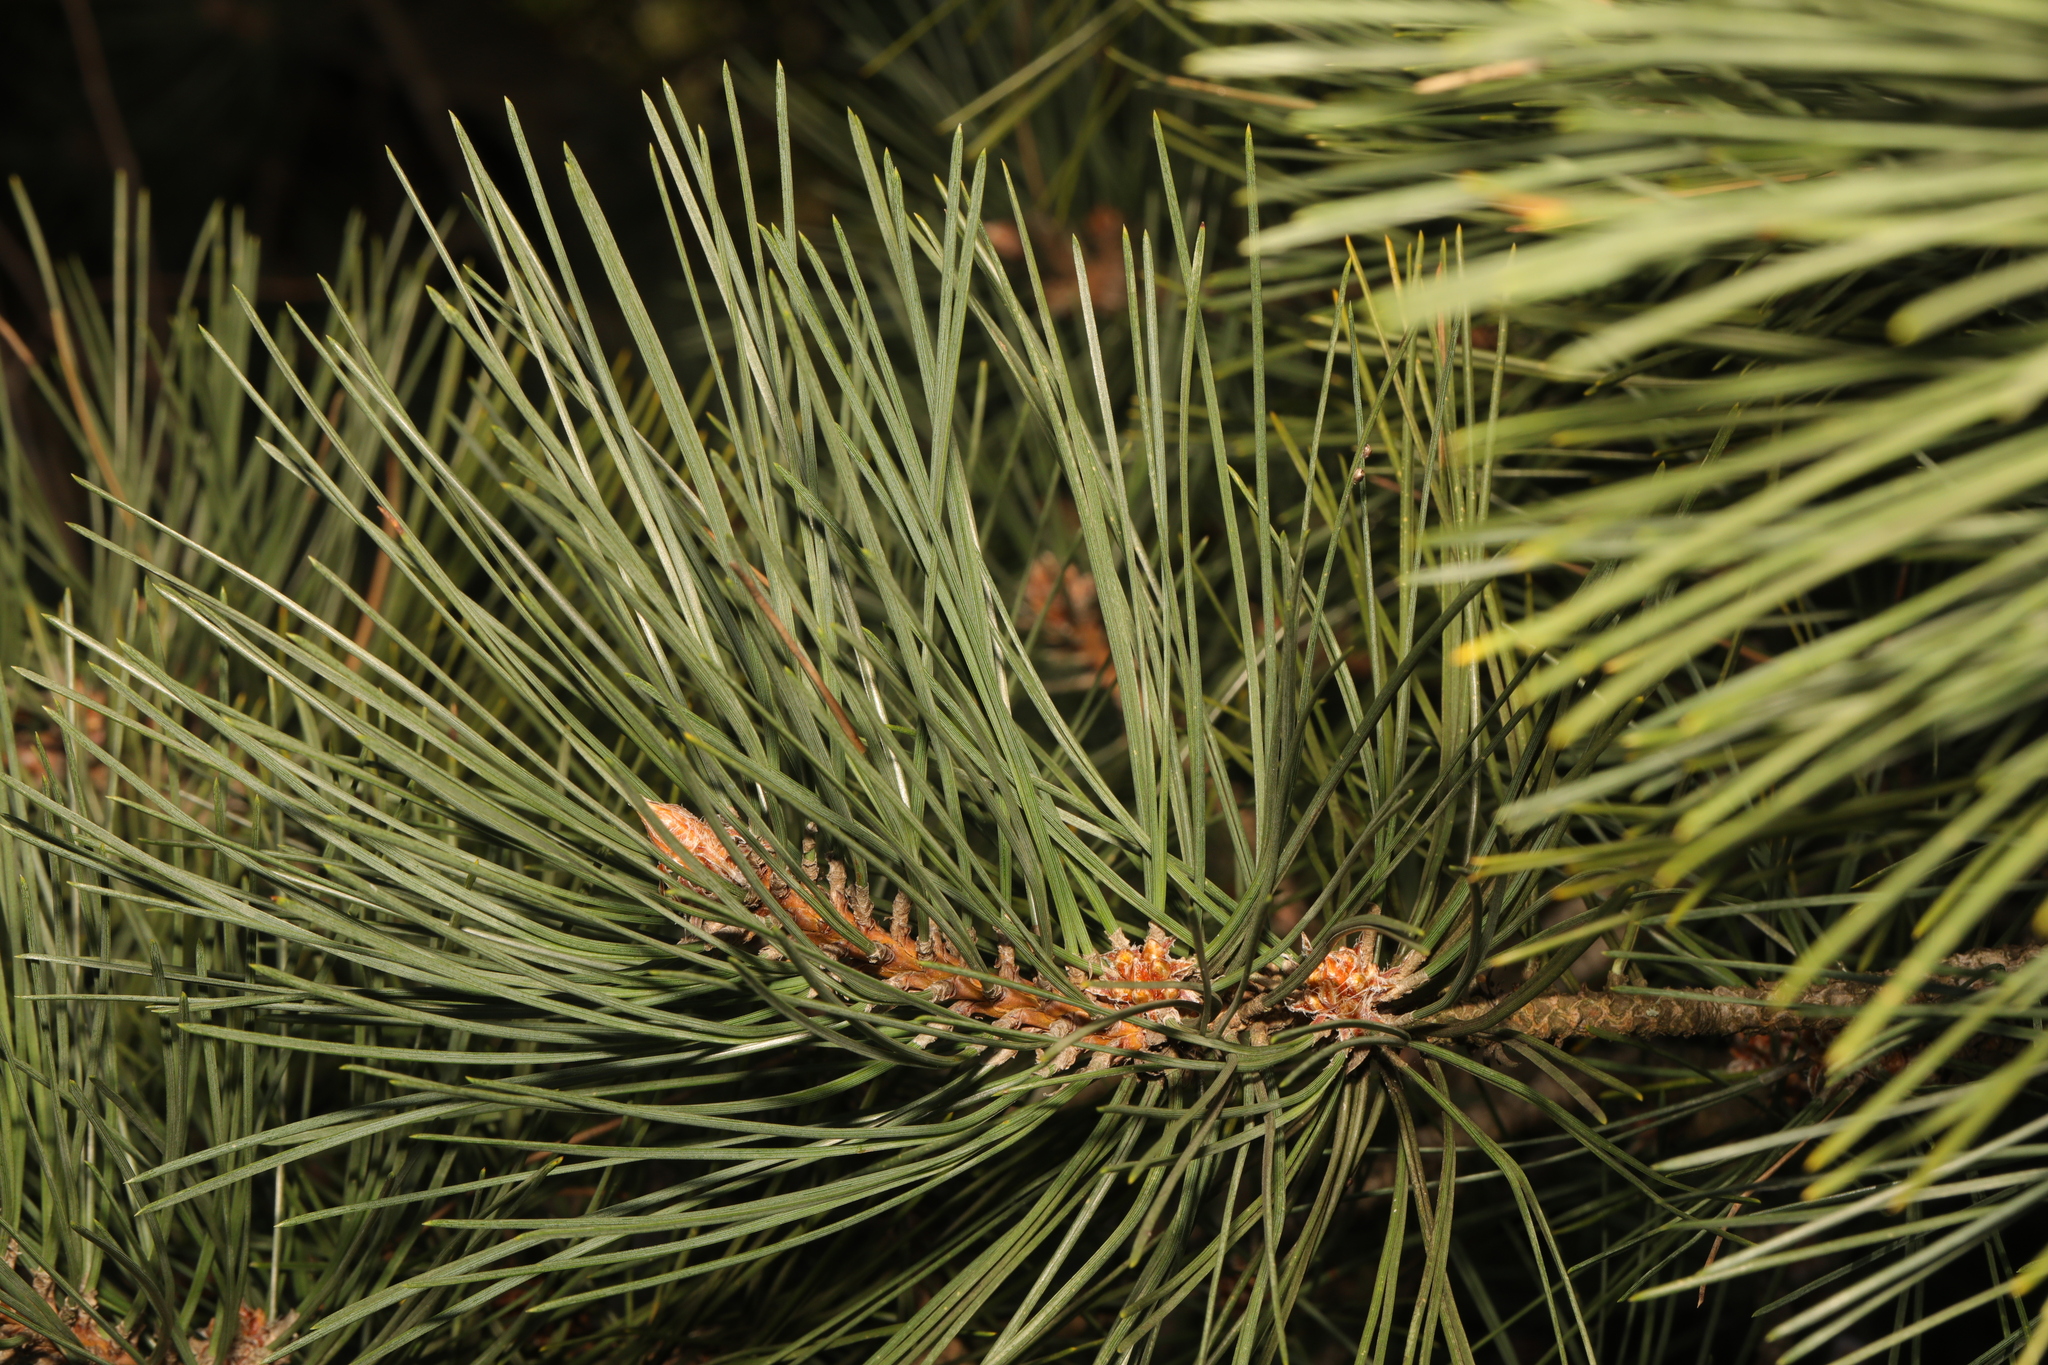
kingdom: Plantae
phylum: Tracheophyta
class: Pinopsida
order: Pinales
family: Pinaceae
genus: Pinus
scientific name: Pinus nigra
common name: Austrian pine
